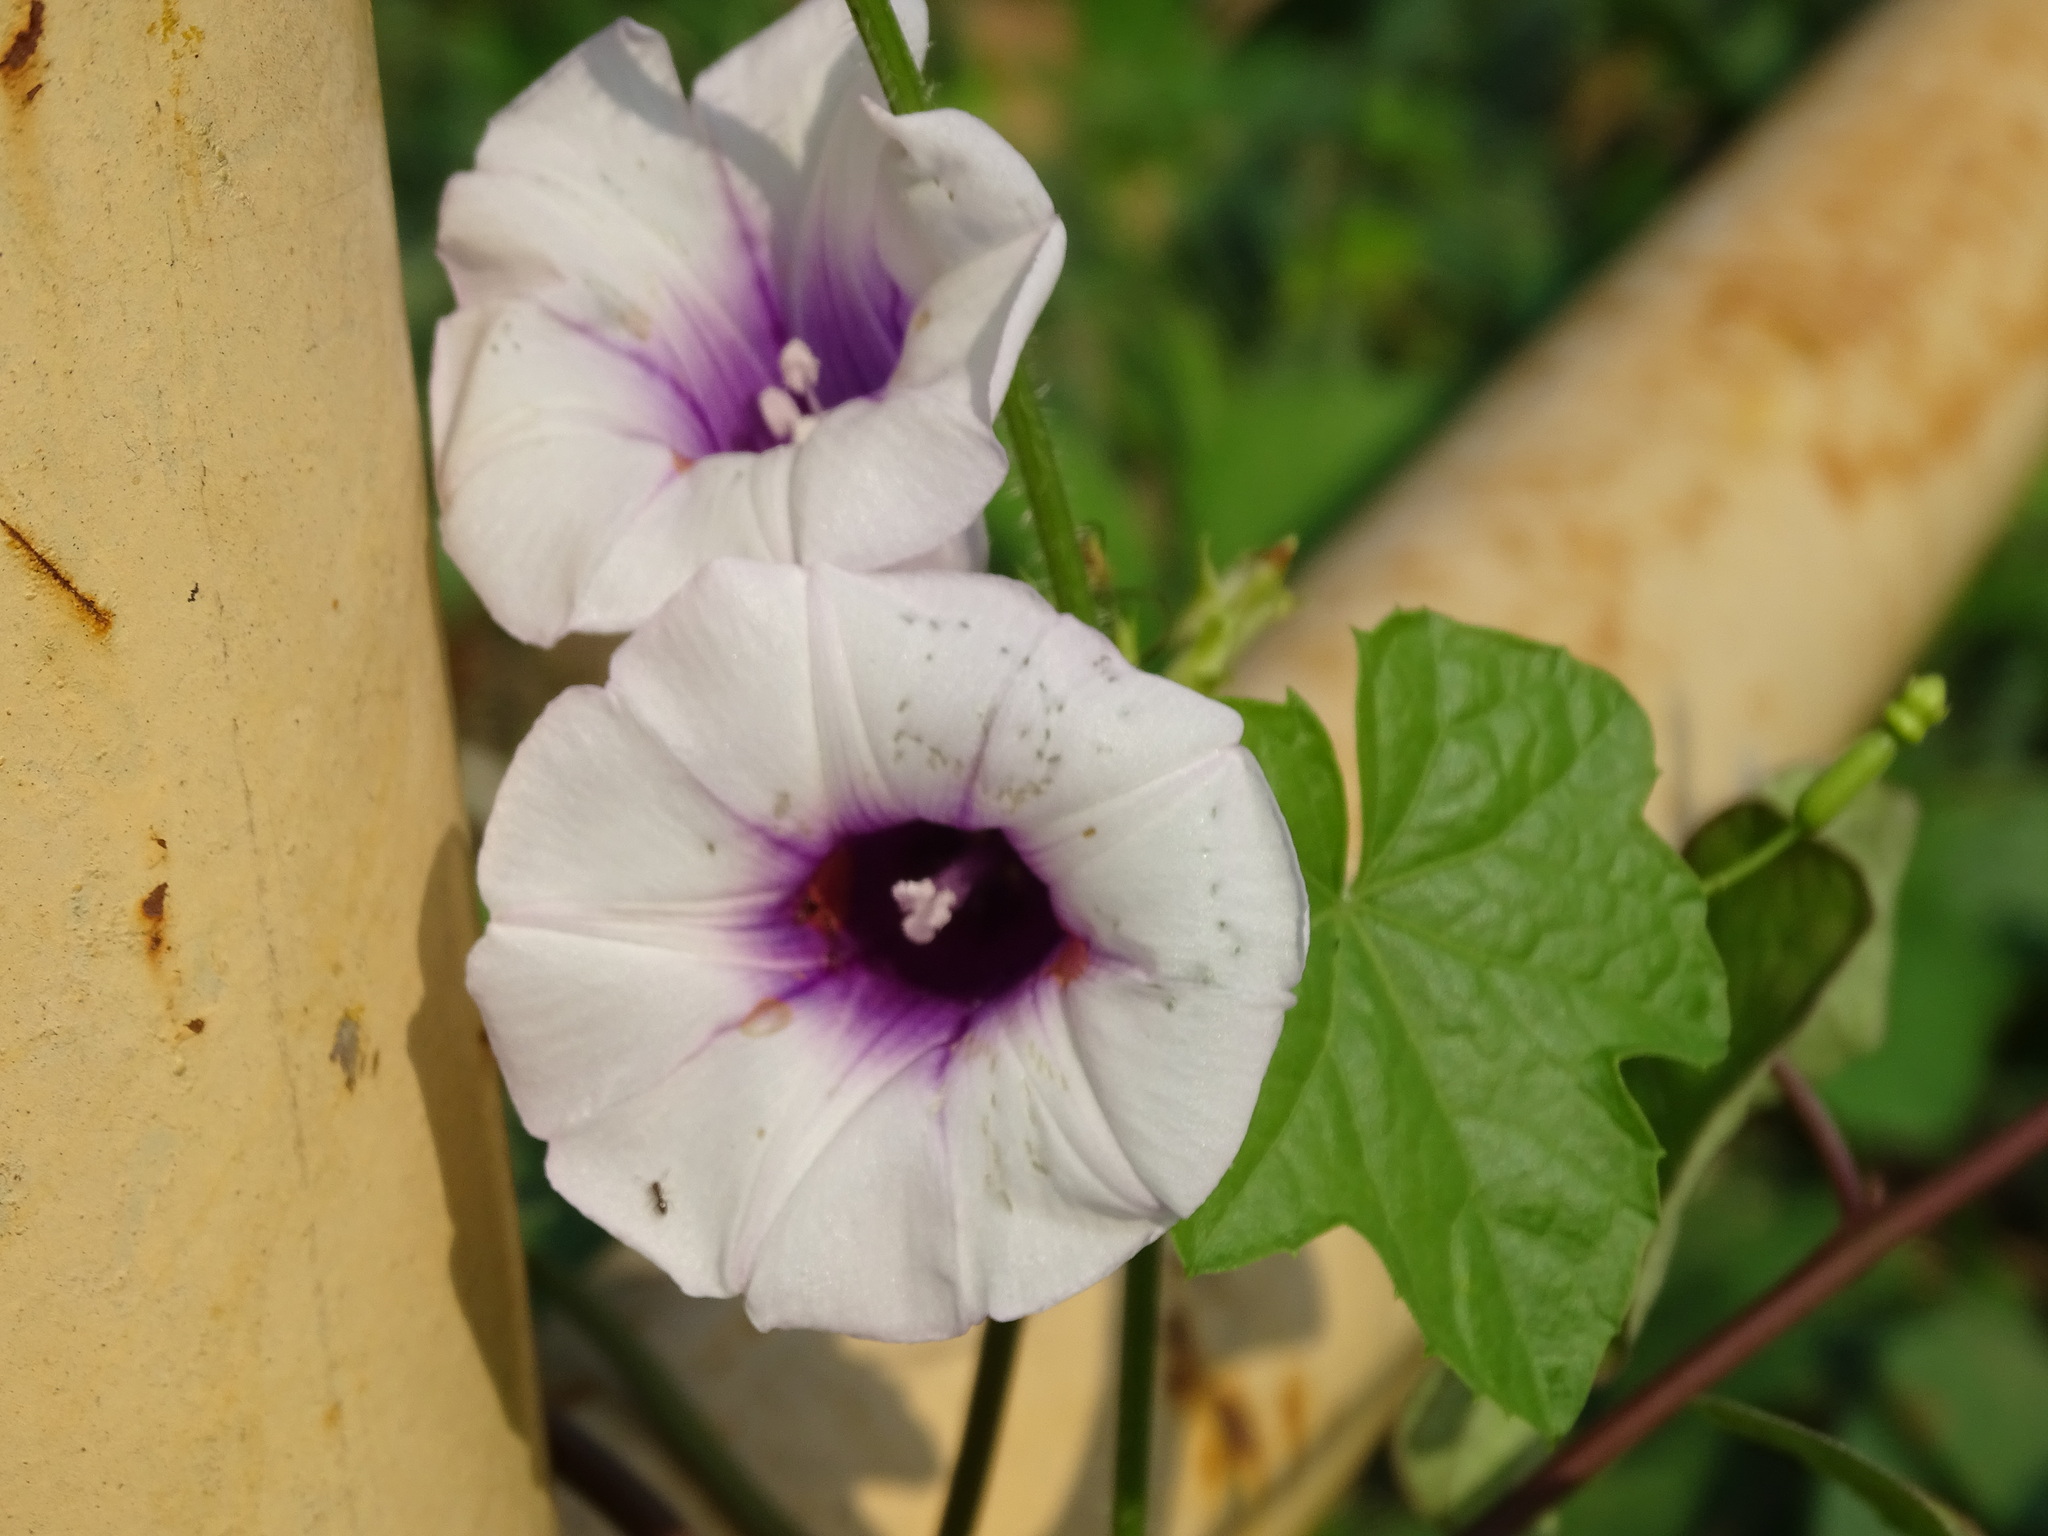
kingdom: Plantae
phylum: Tracheophyta
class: Magnoliopsida
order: Solanales
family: Convolvulaceae
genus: Ipomoea
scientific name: Ipomoea batatas
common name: Sweet-potato
